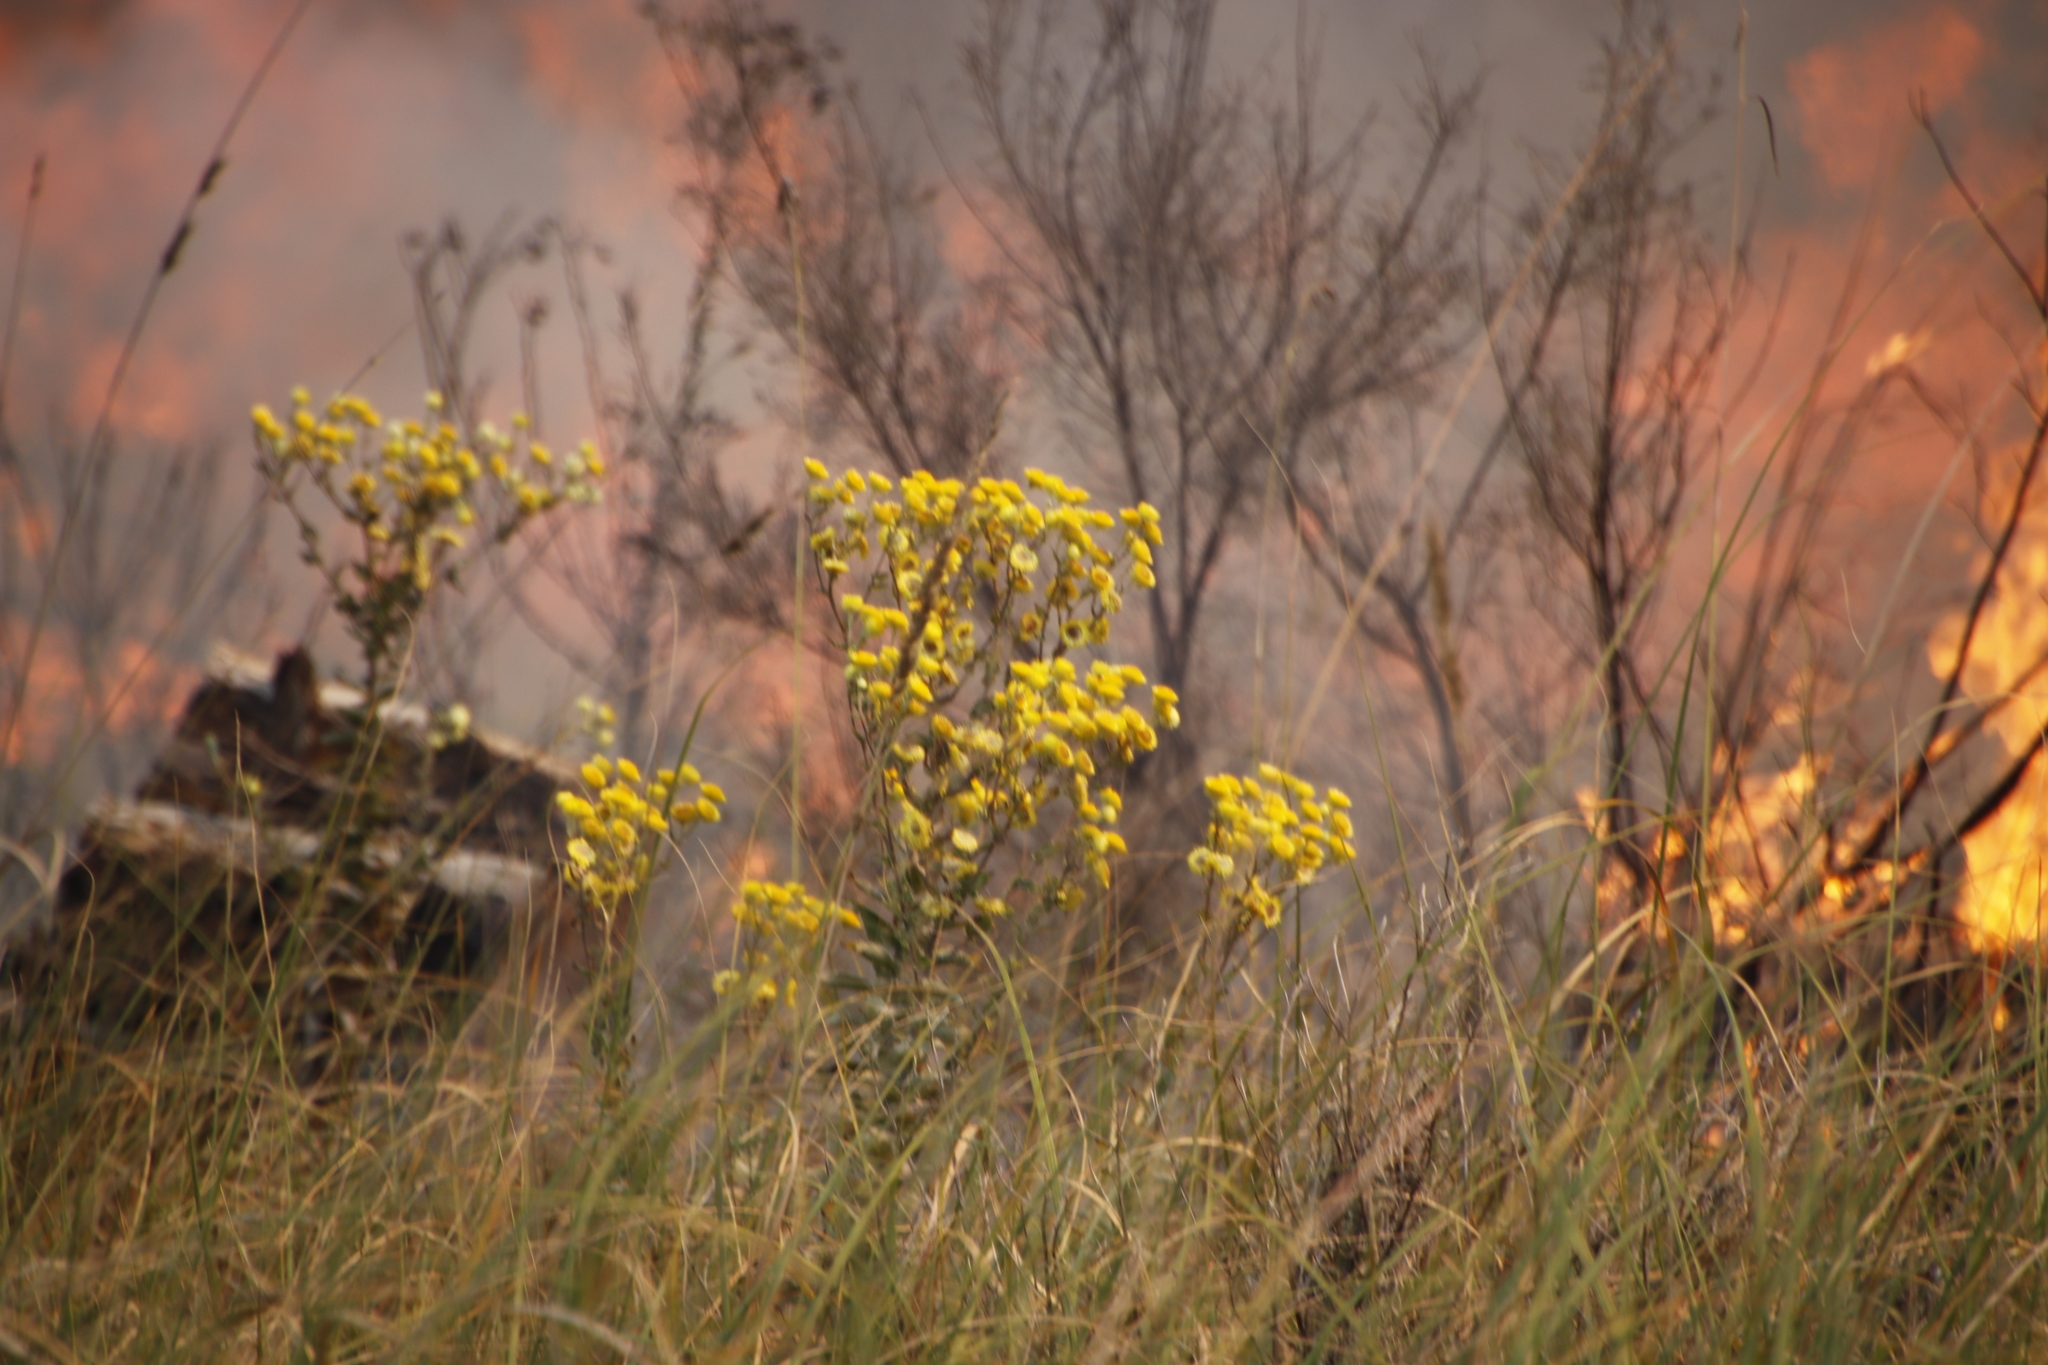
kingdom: Plantae
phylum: Tracheophyta
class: Magnoliopsida
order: Asterales
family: Asteraceae
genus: Helichrysum
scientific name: Helichrysum foetidum
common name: Stinking everlasting
